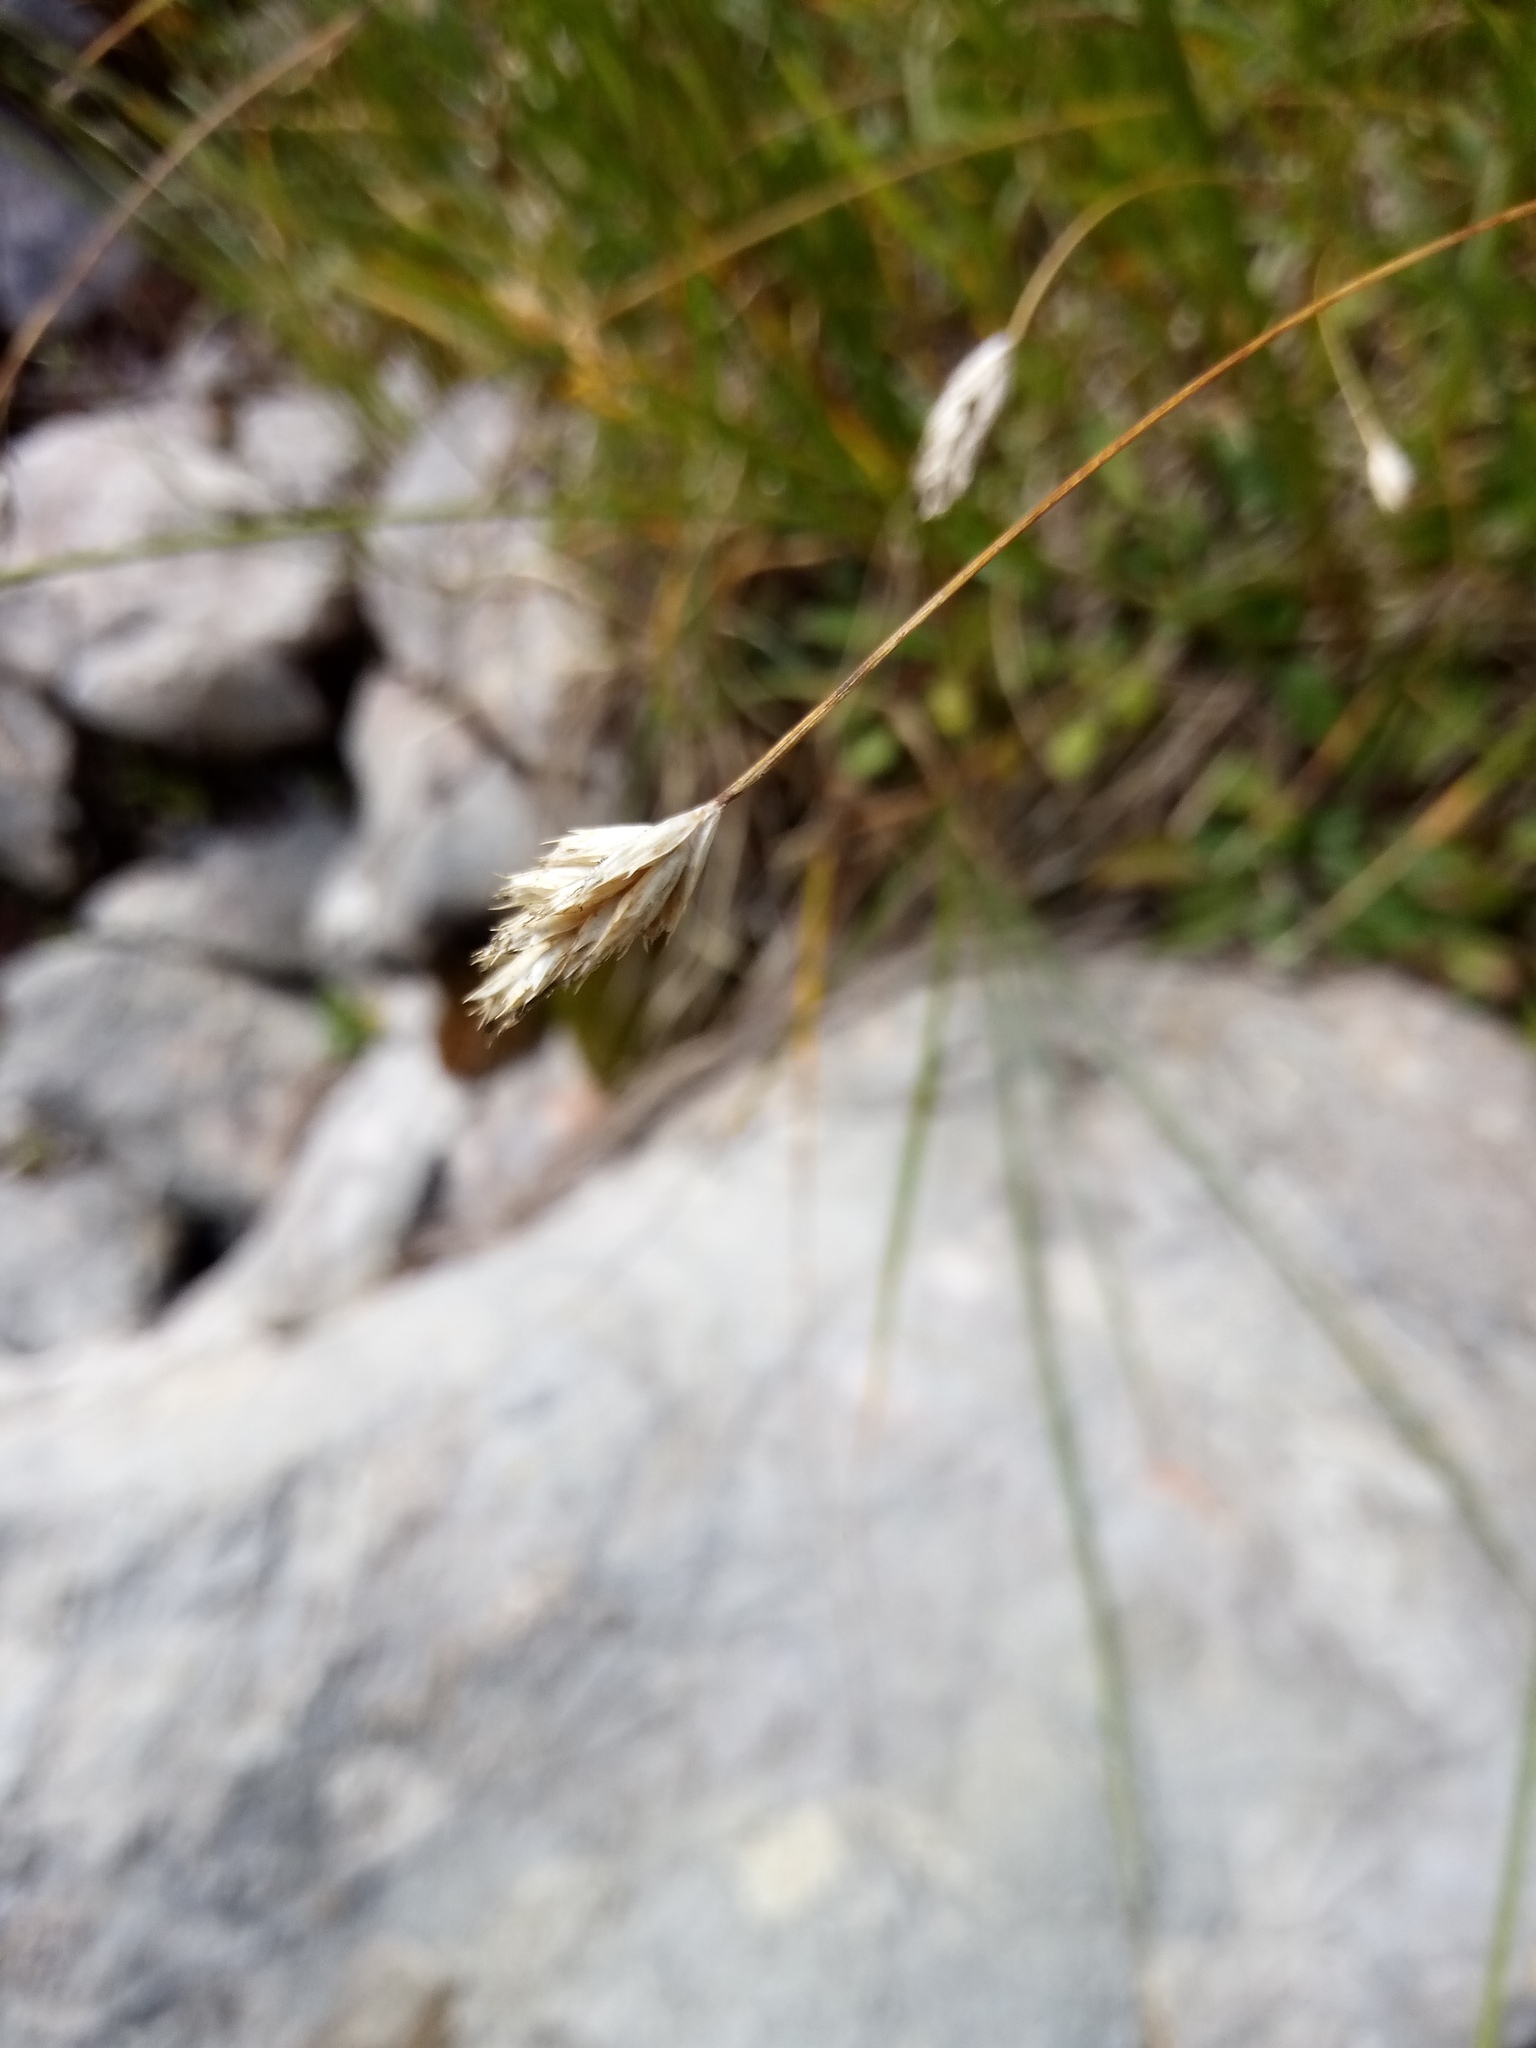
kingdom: Plantae
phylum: Tracheophyta
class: Liliopsida
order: Poales
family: Poaceae
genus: Sesleria
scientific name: Sesleria caerulea
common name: Blue moor-grass
